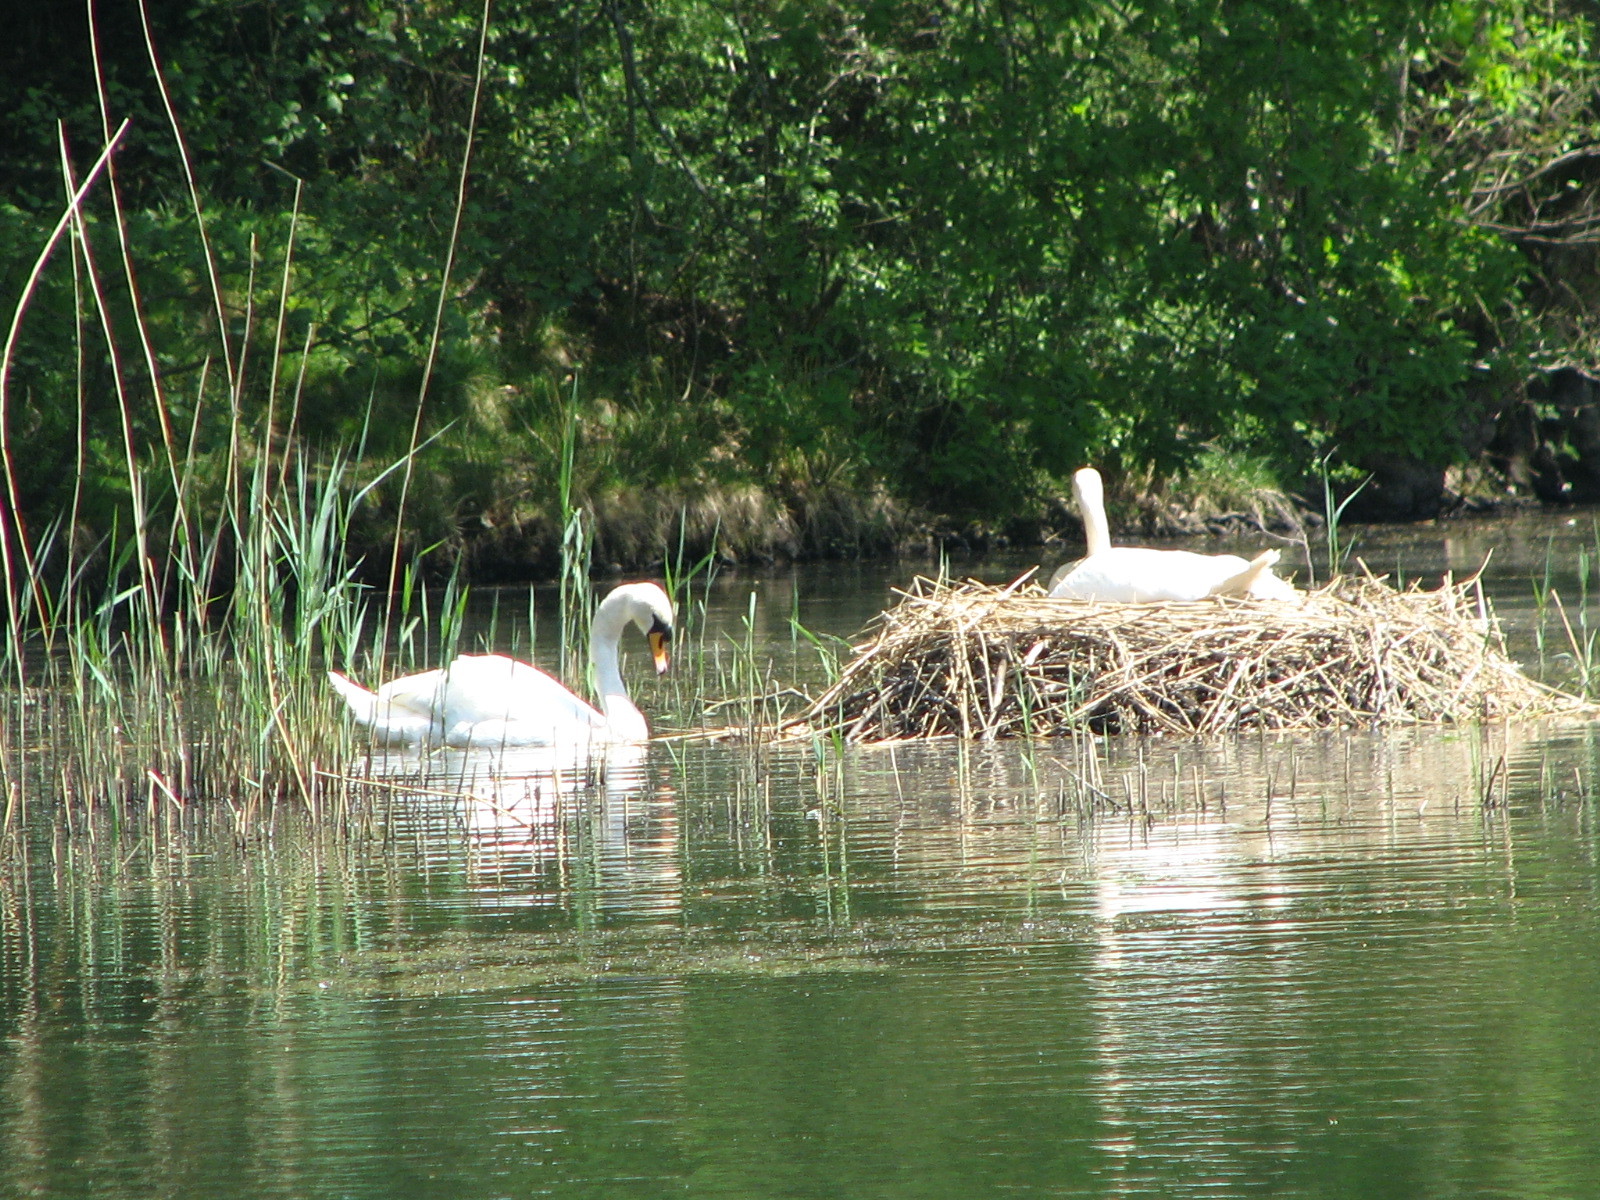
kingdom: Animalia
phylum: Chordata
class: Aves
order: Anseriformes
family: Anatidae
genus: Cygnus
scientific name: Cygnus olor
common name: Mute swan
